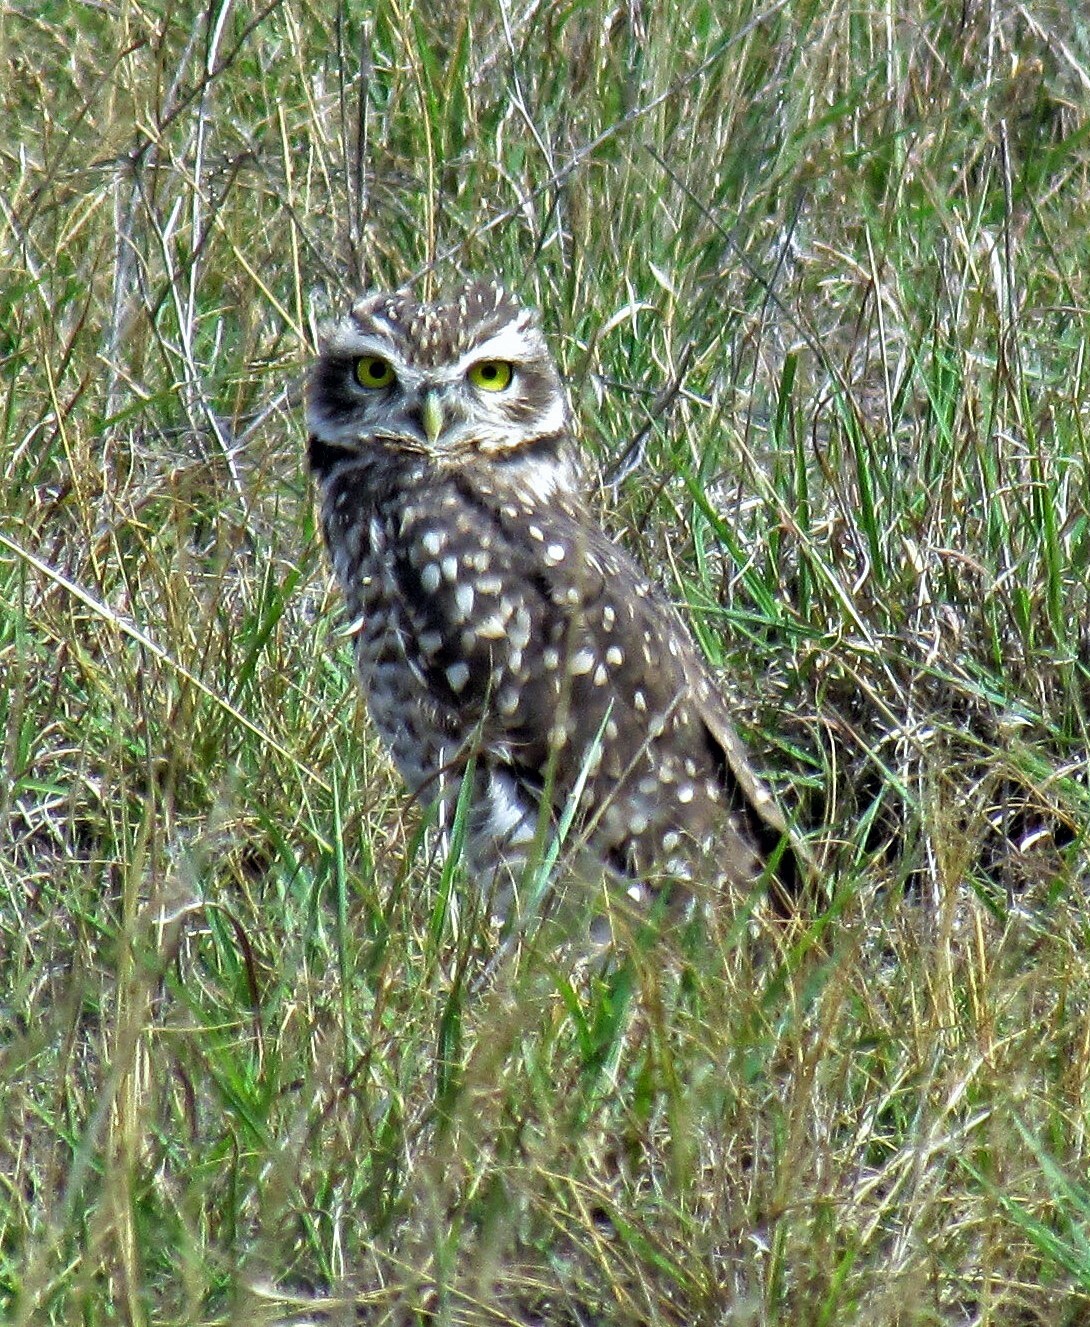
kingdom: Animalia
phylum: Chordata
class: Aves
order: Strigiformes
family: Strigidae
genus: Athene
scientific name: Athene cunicularia
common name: Burrowing owl
